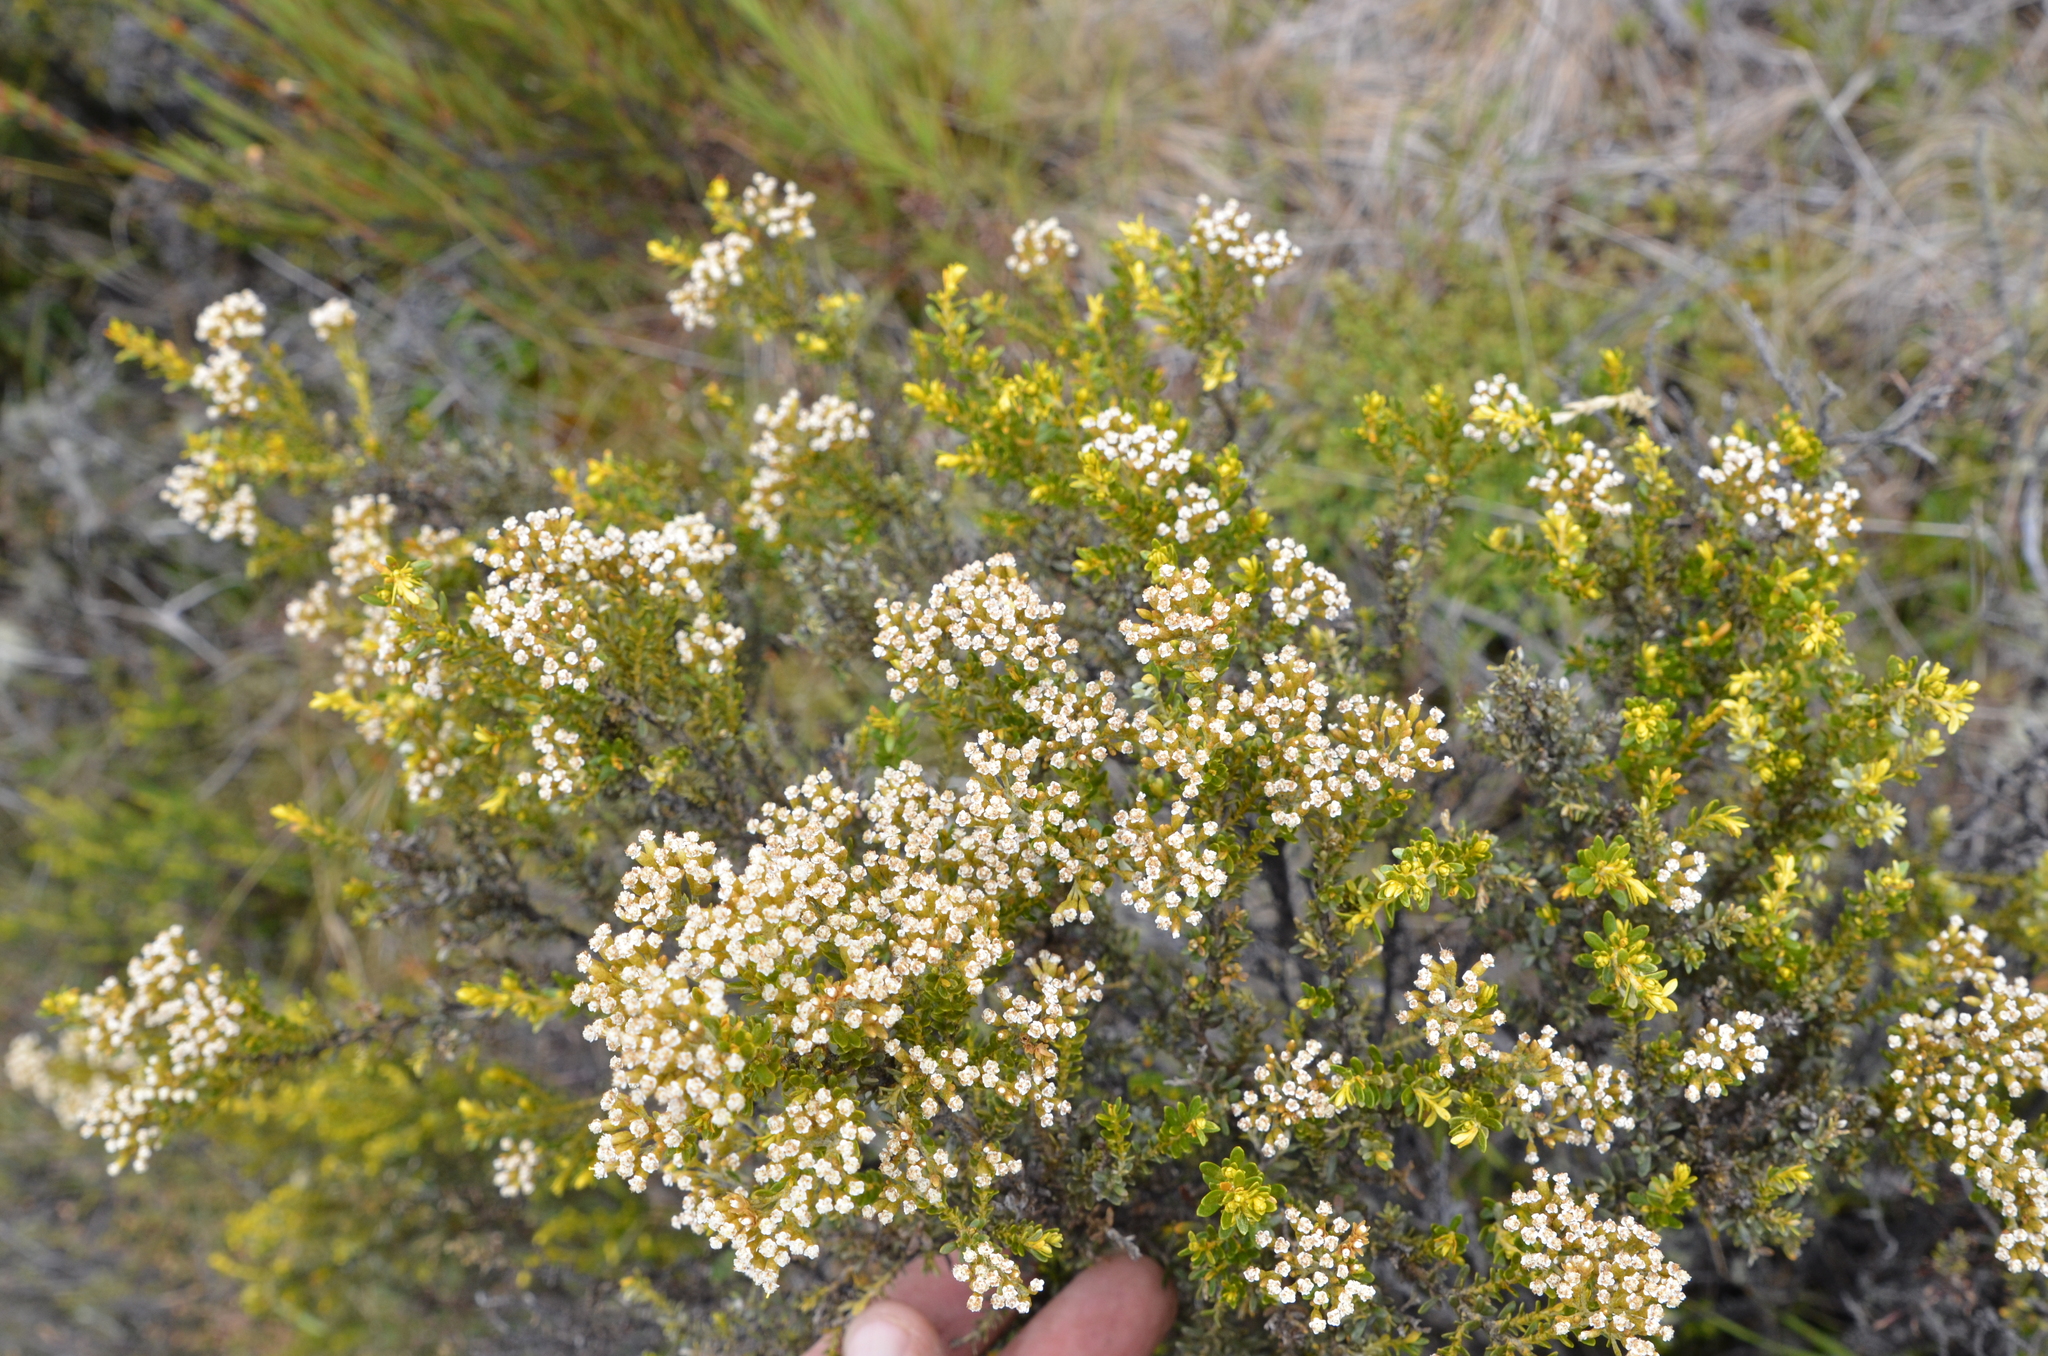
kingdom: Plantae
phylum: Tracheophyta
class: Magnoliopsida
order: Asterales
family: Asteraceae
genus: Ozothamnus
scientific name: Ozothamnus leptophyllus
